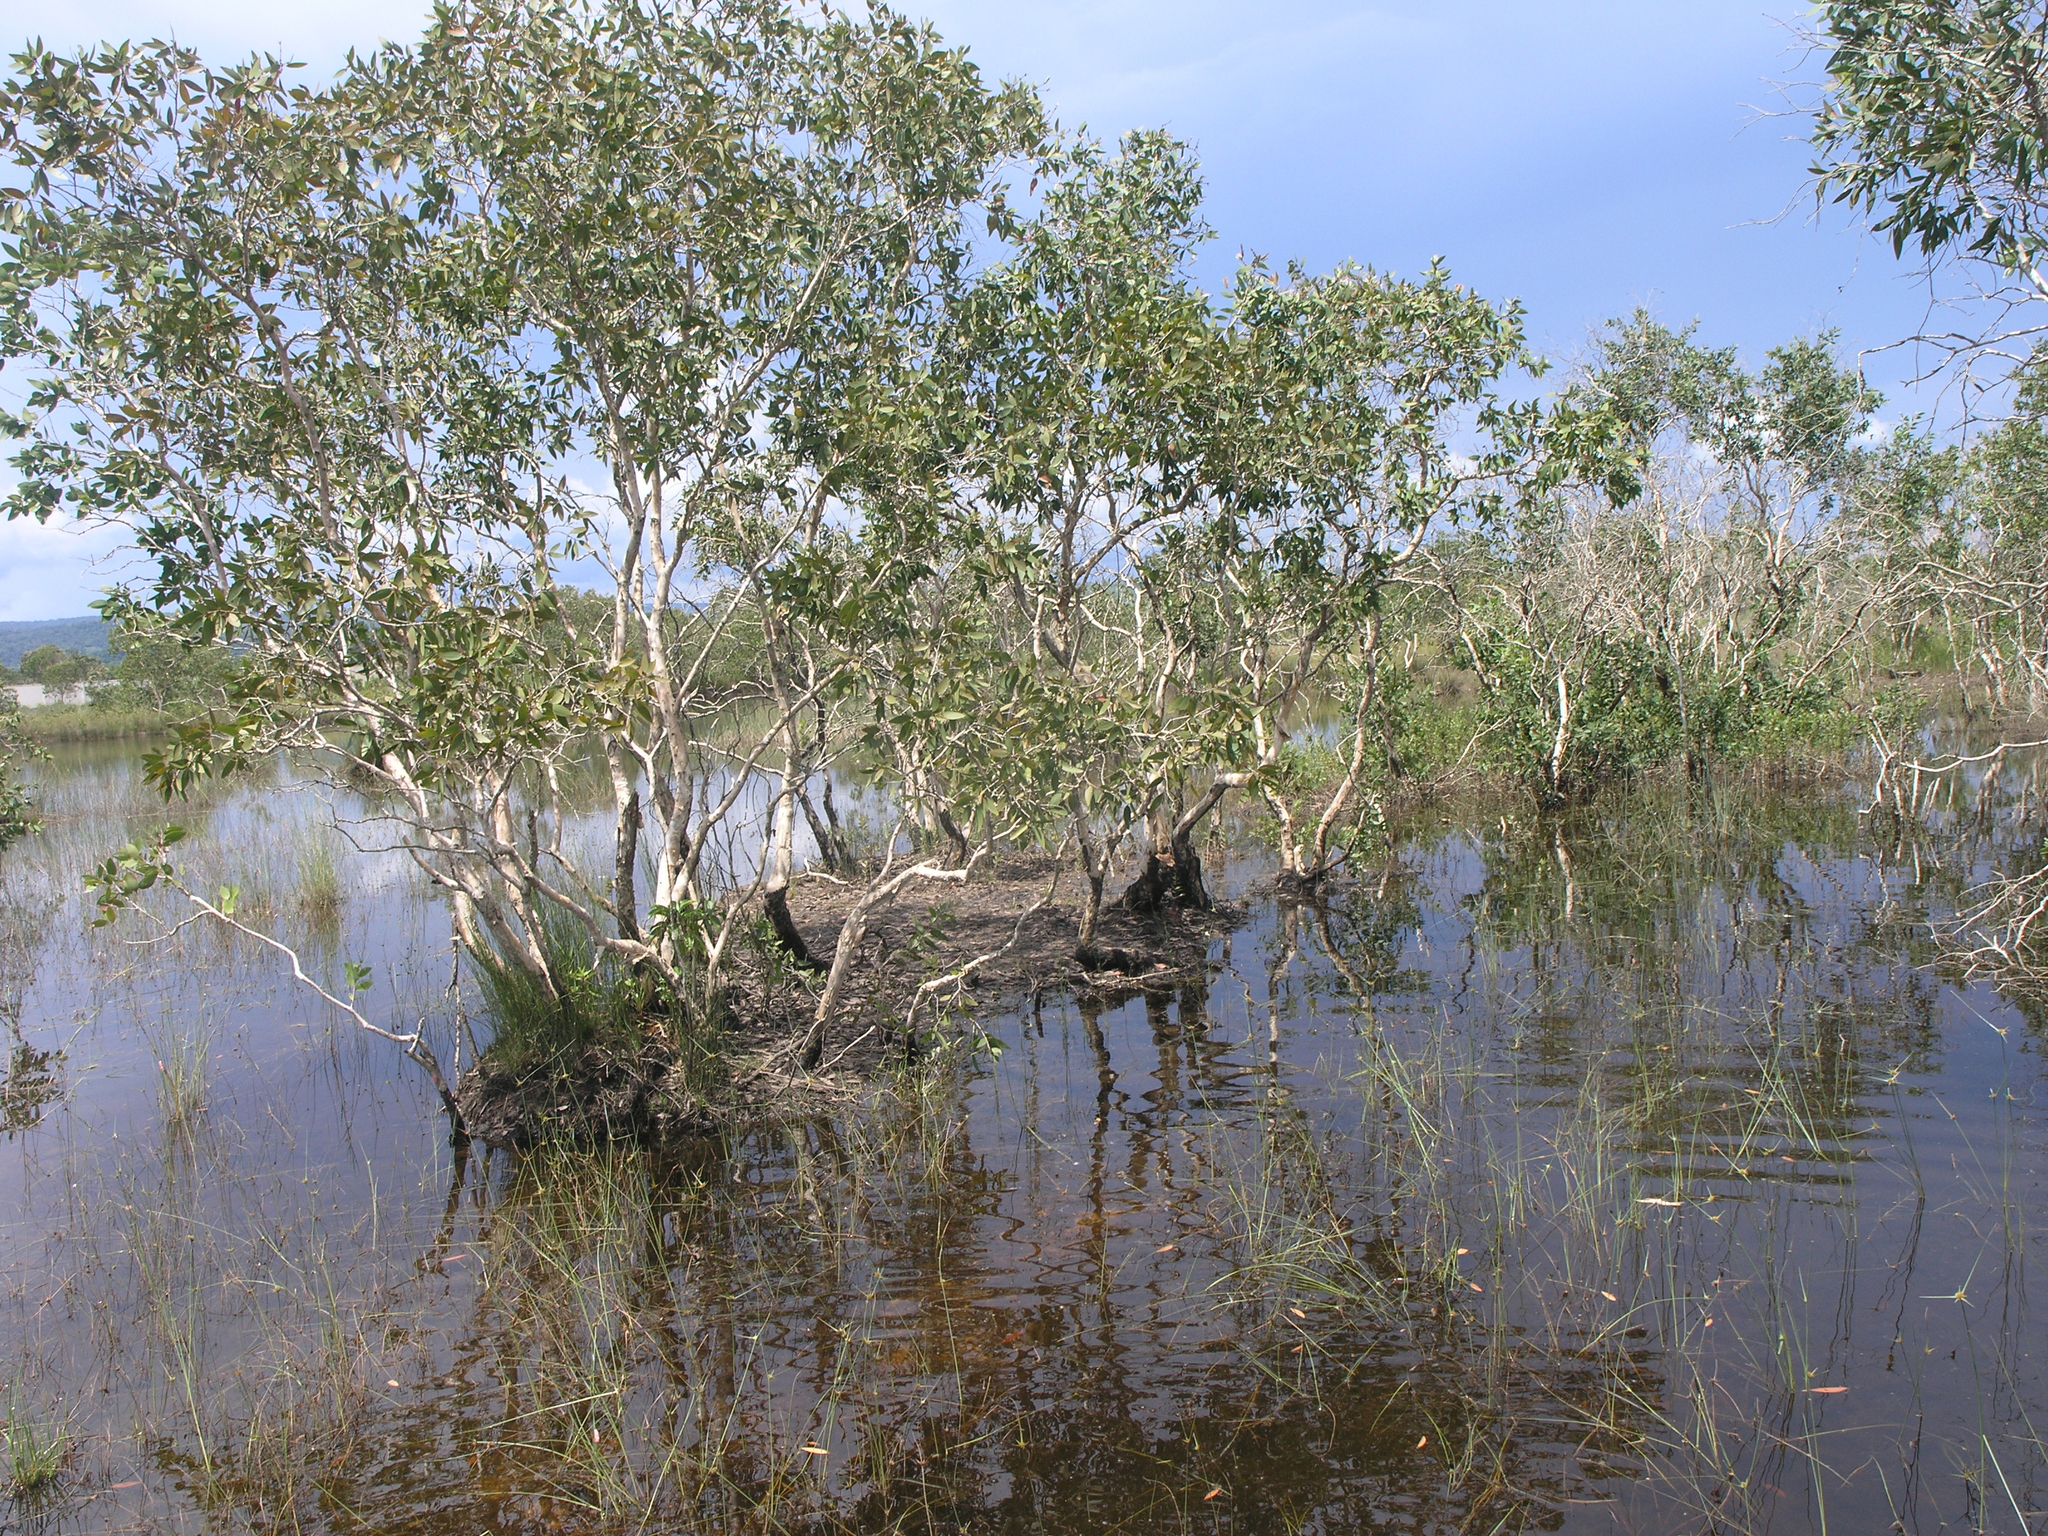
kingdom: Plantae
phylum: Tracheophyta
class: Magnoliopsida
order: Myrtales
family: Myrtaceae
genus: Melaleuca
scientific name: Melaleuca cajuputi
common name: Cajuput
